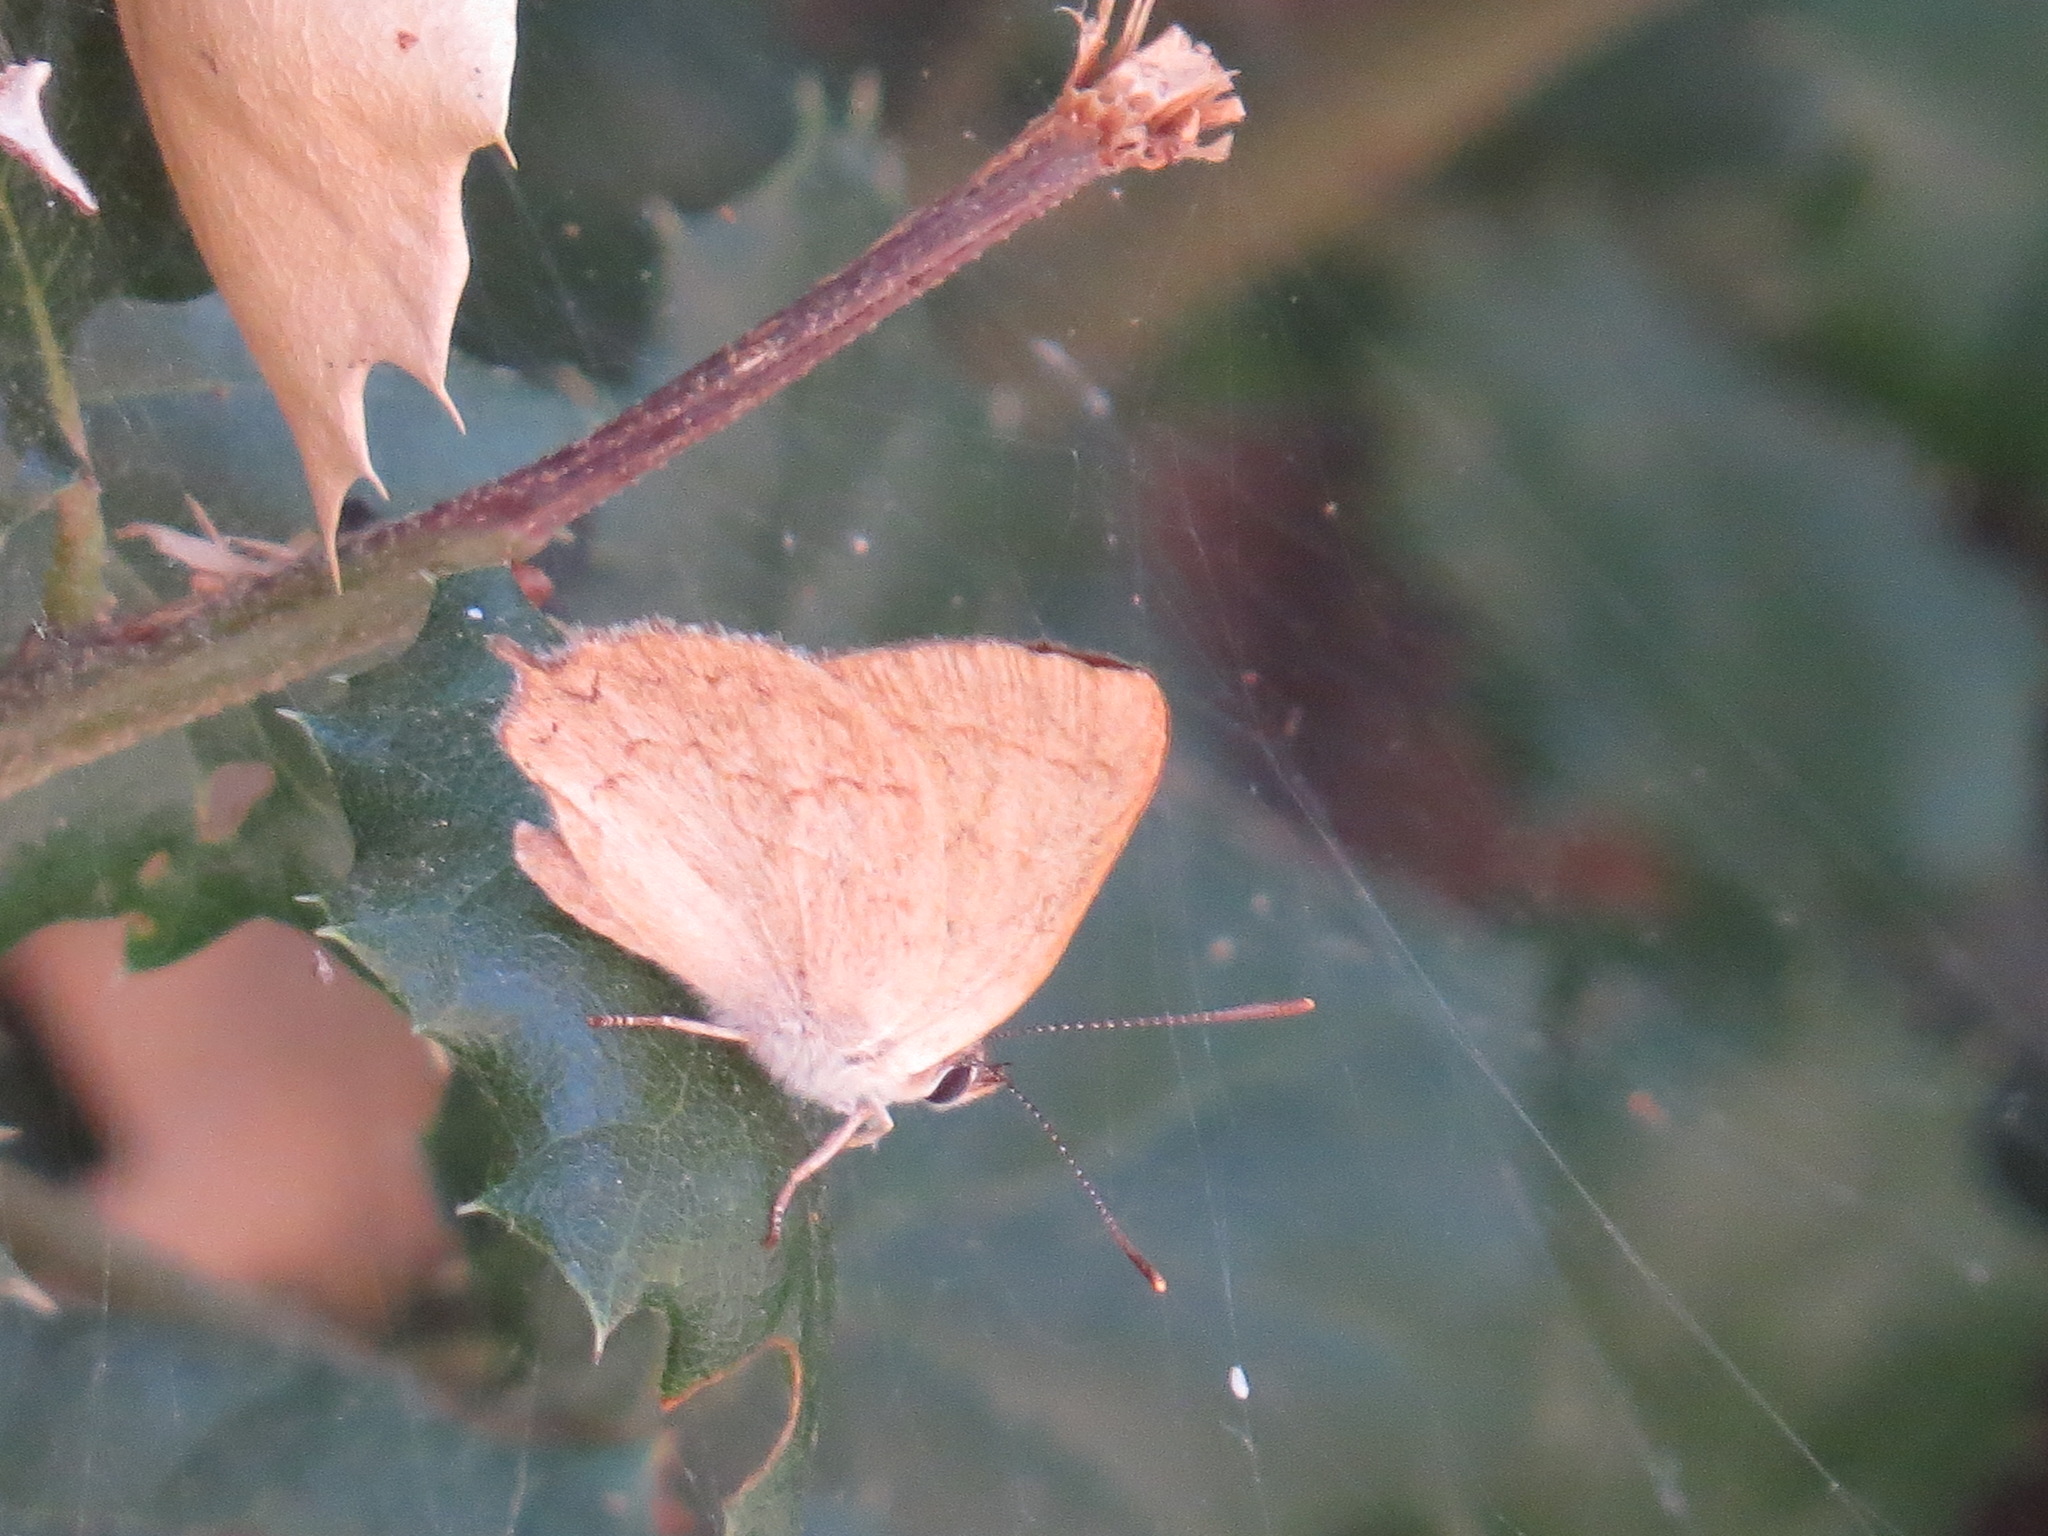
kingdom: Animalia
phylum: Arthropoda
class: Insecta
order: Lepidoptera
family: Lycaenidae
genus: Habrodais
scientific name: Habrodais grunus
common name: Golden hairstreak
